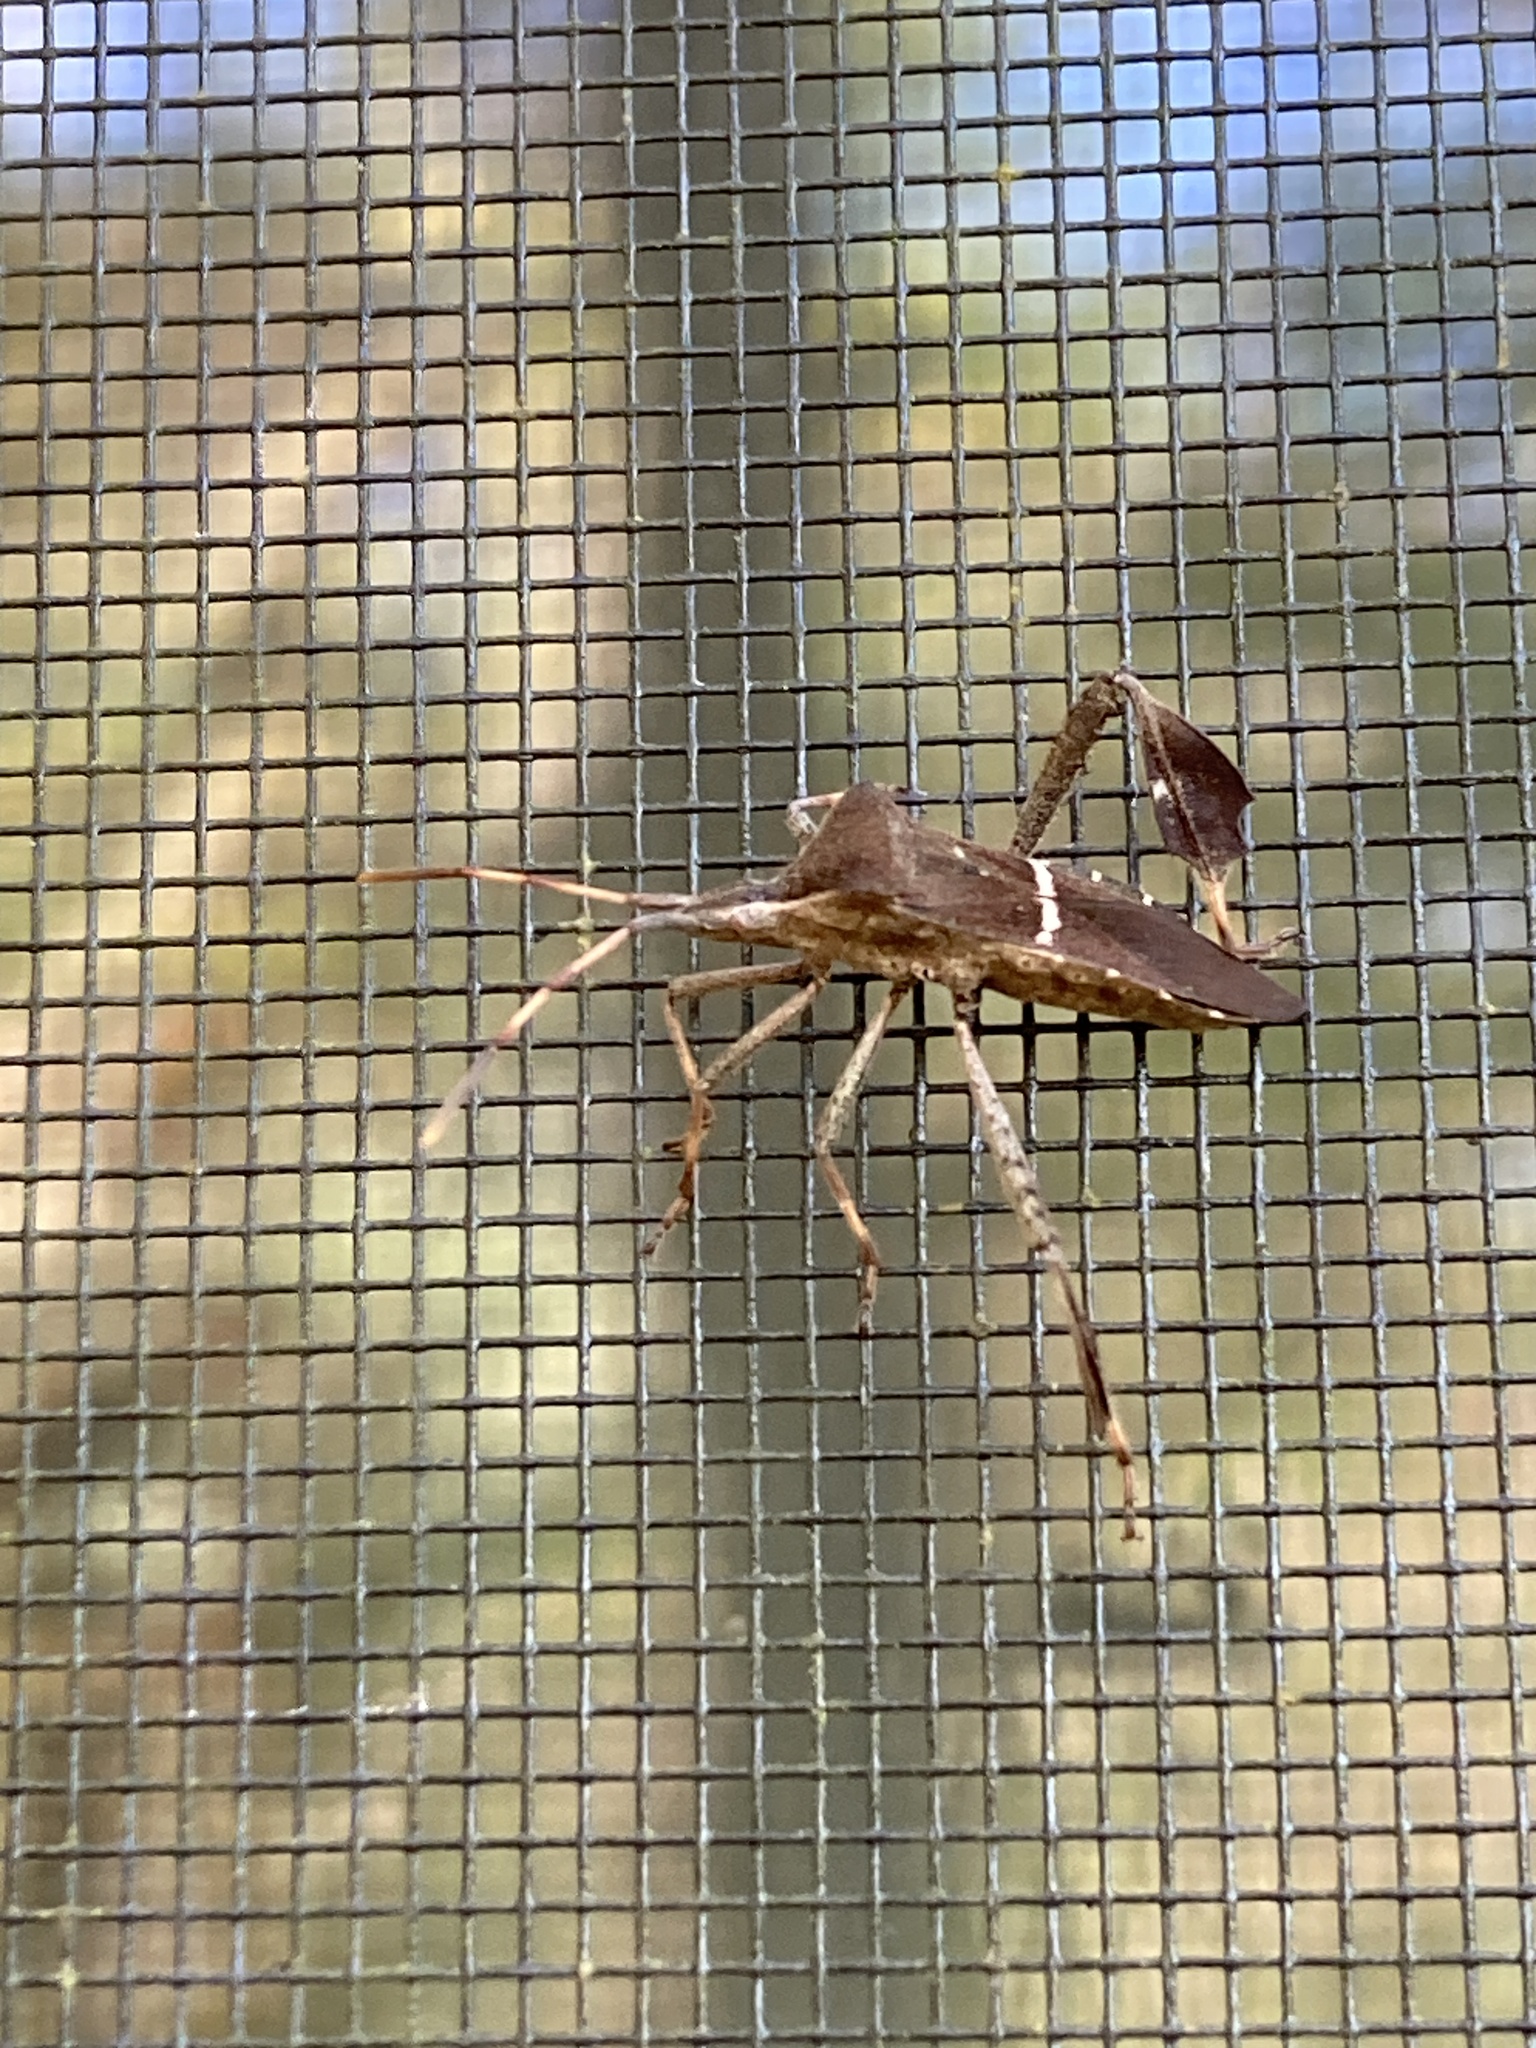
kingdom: Animalia
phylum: Arthropoda
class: Insecta
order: Hemiptera
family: Coreidae
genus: Leptoglossus
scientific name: Leptoglossus phyllopus
